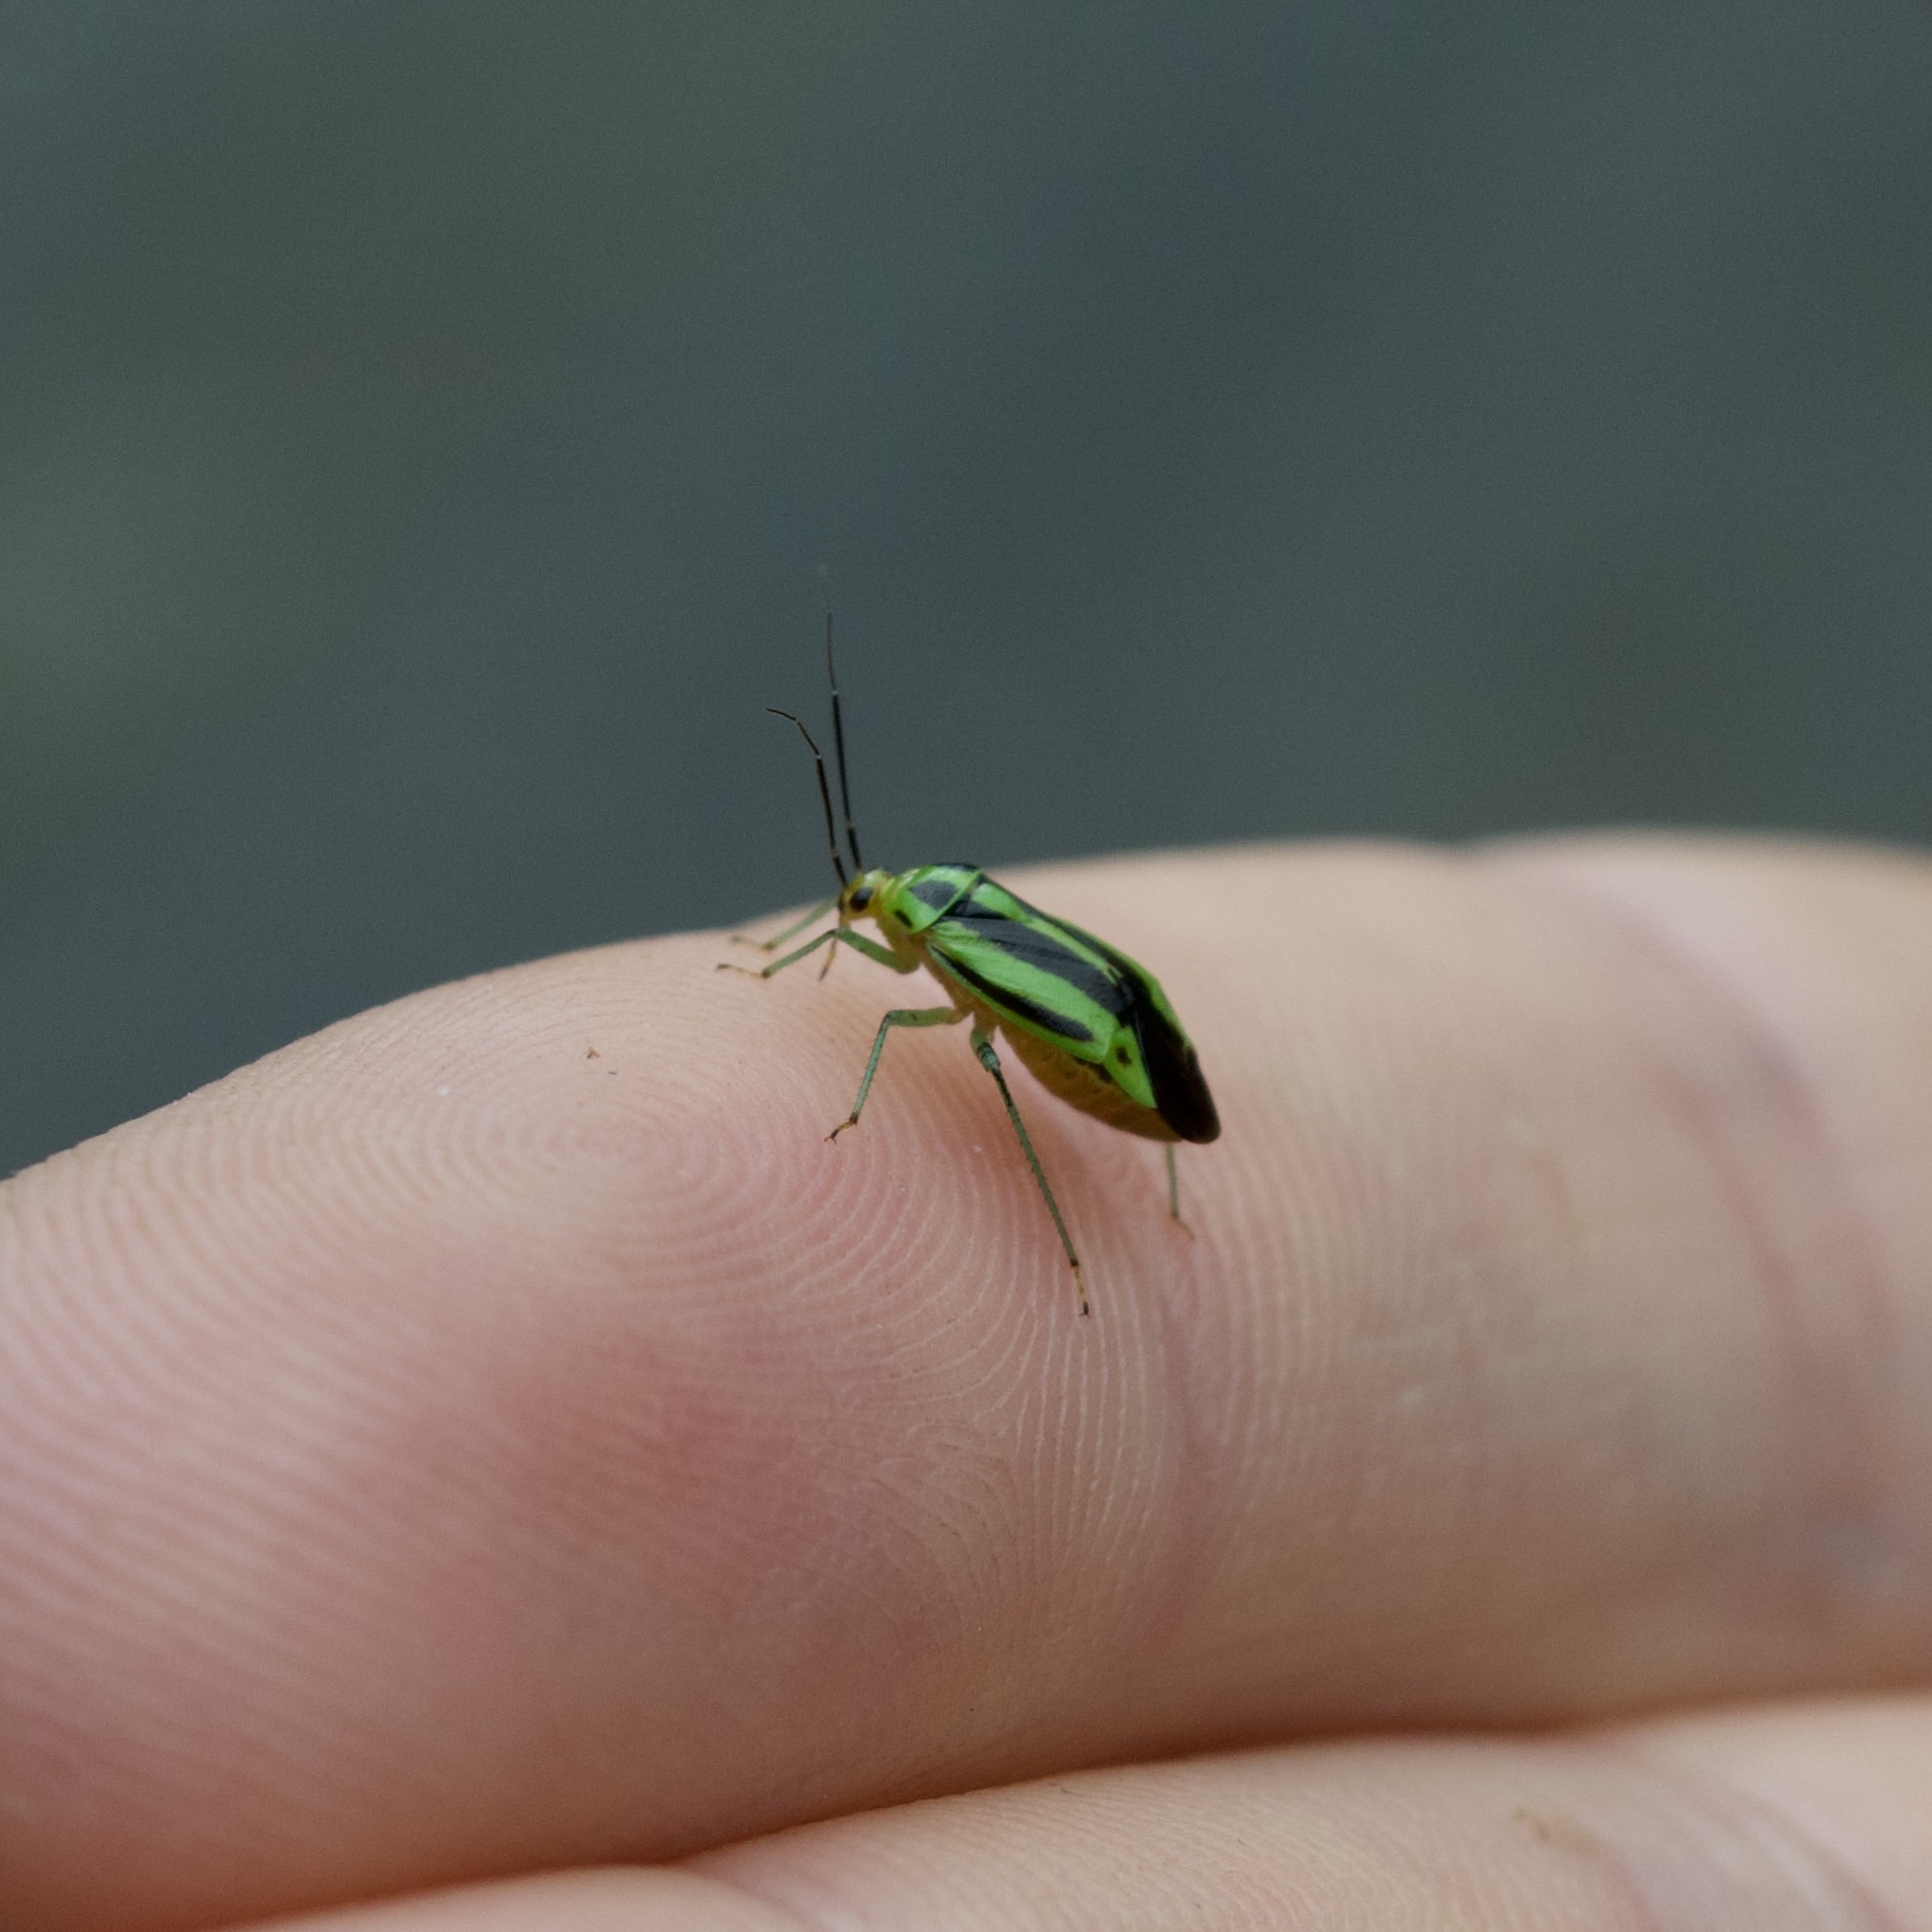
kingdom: Animalia
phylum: Arthropoda
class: Insecta
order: Hemiptera
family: Miridae
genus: Poecilocapsus
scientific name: Poecilocapsus lineatus
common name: Four-lined plant bug
